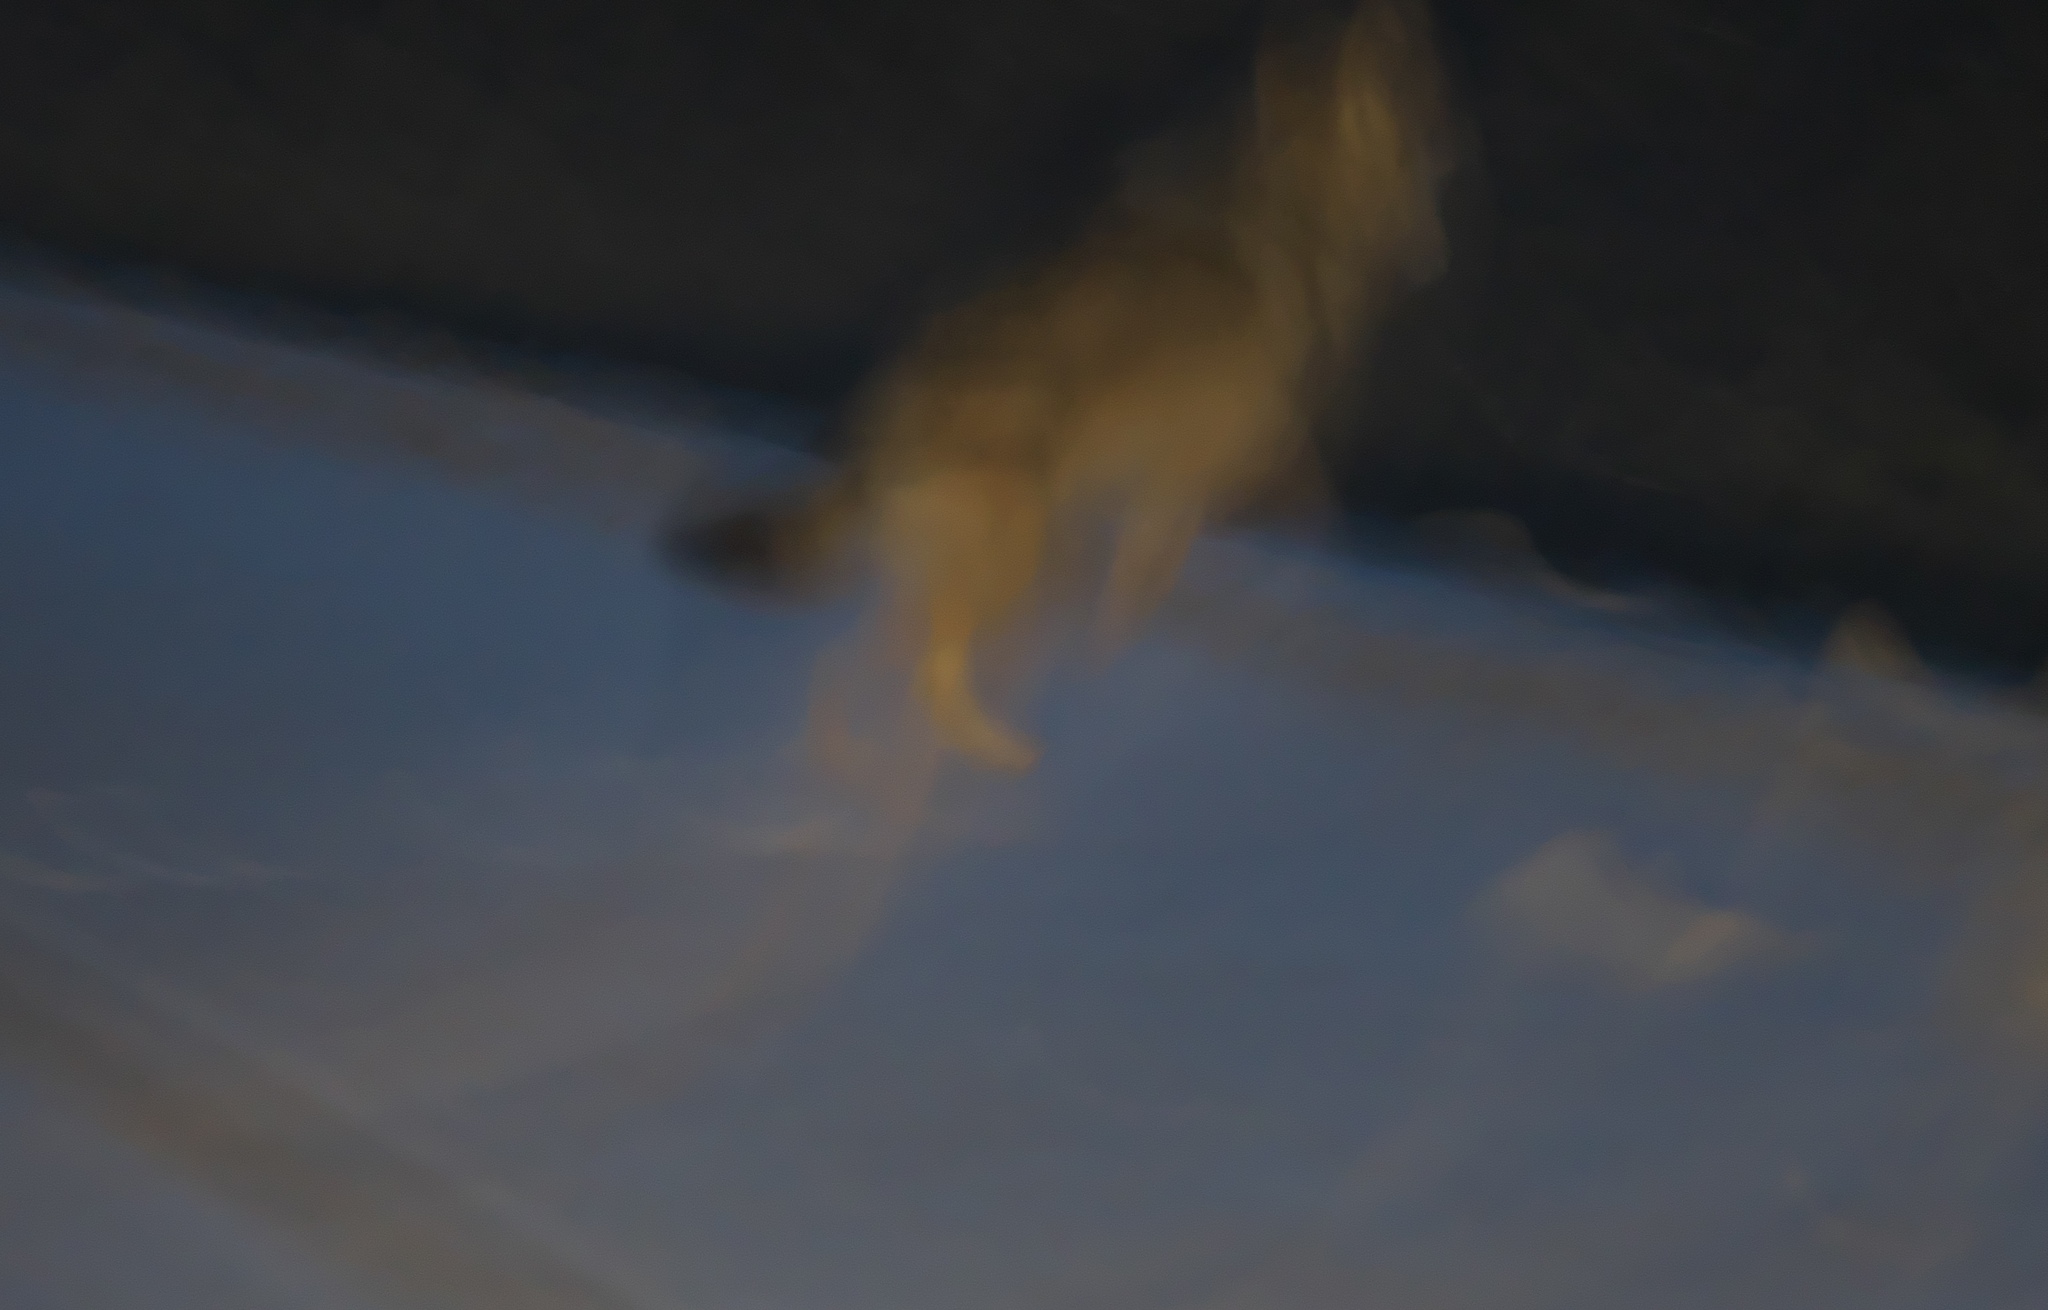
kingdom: Animalia
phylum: Chordata
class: Mammalia
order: Carnivora
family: Canidae
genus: Canis
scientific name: Canis lupus
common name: Gray wolf
